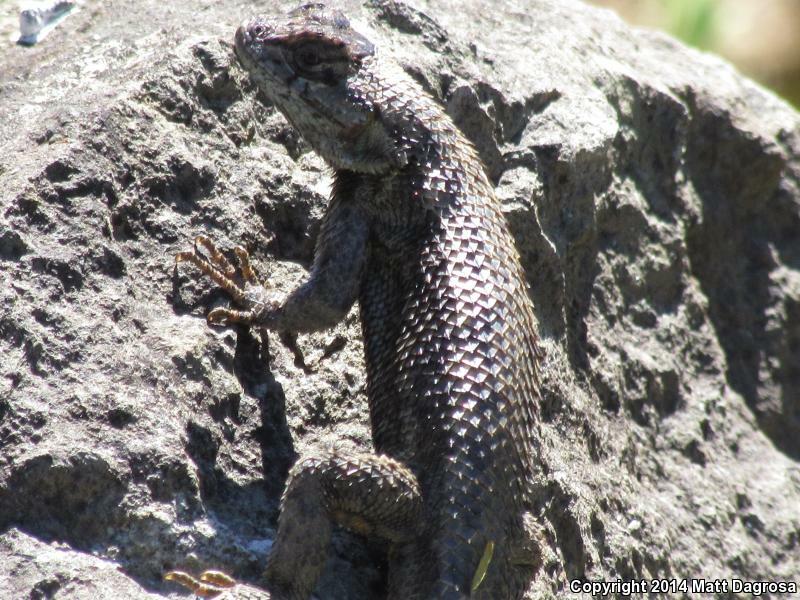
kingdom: Animalia
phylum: Chordata
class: Squamata
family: Phrynosomatidae
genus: Sceloporus
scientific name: Sceloporus occidentalis
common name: Western fence lizard
